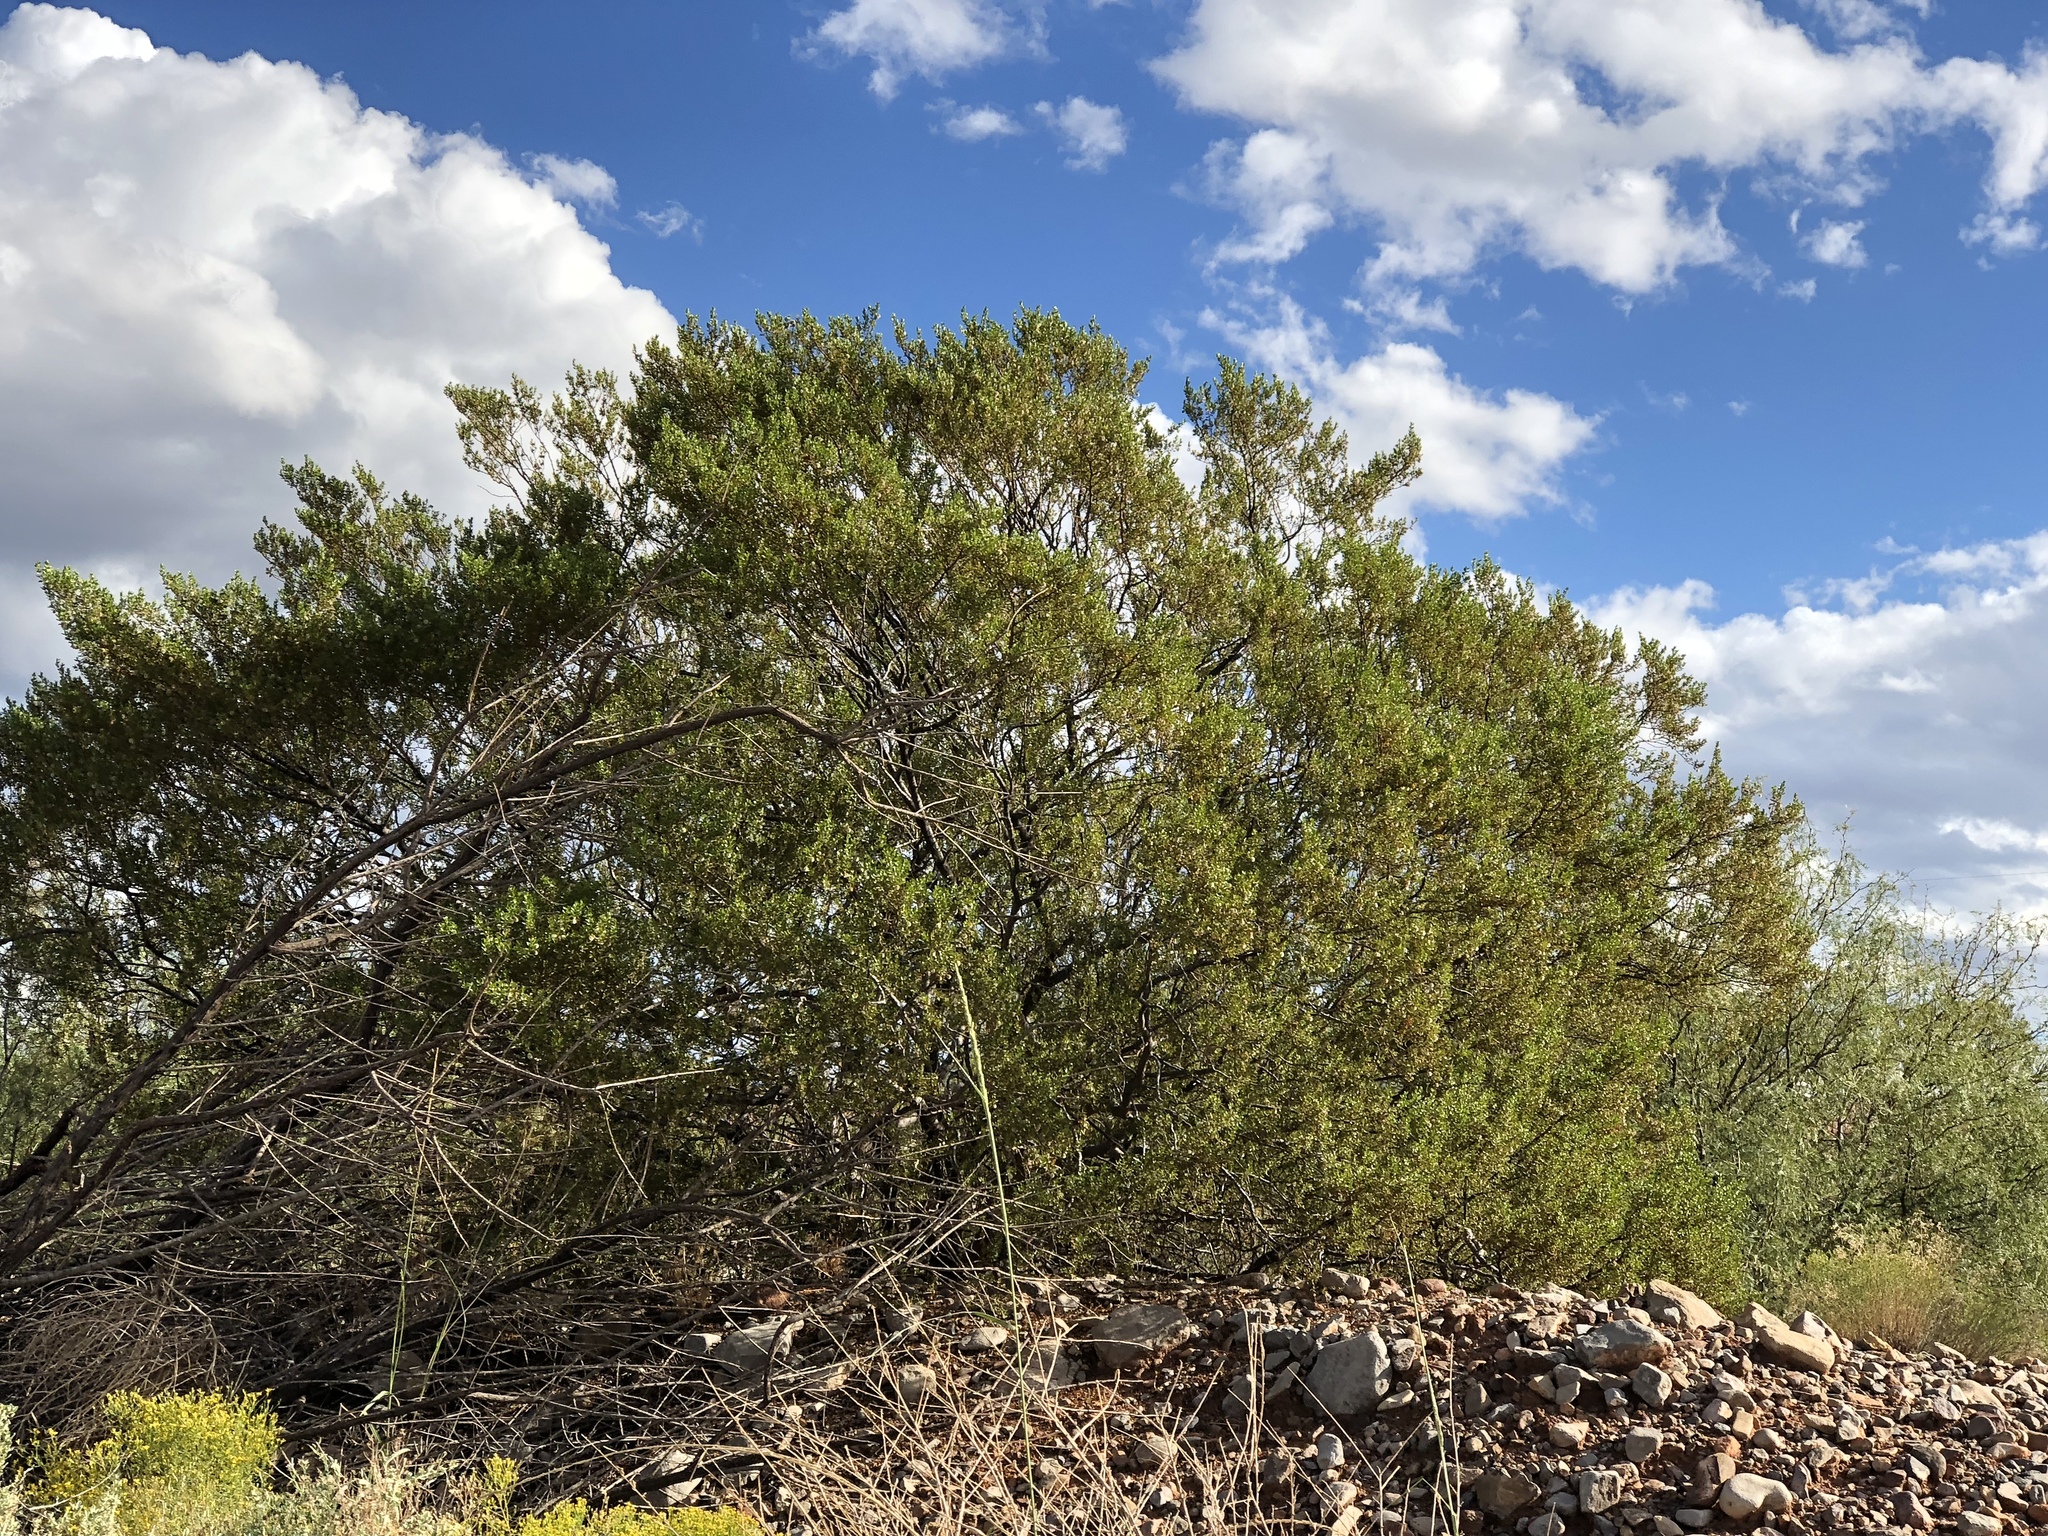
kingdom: Plantae
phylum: Tracheophyta
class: Magnoliopsida
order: Zygophyllales
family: Zygophyllaceae
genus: Larrea
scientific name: Larrea tridentata
